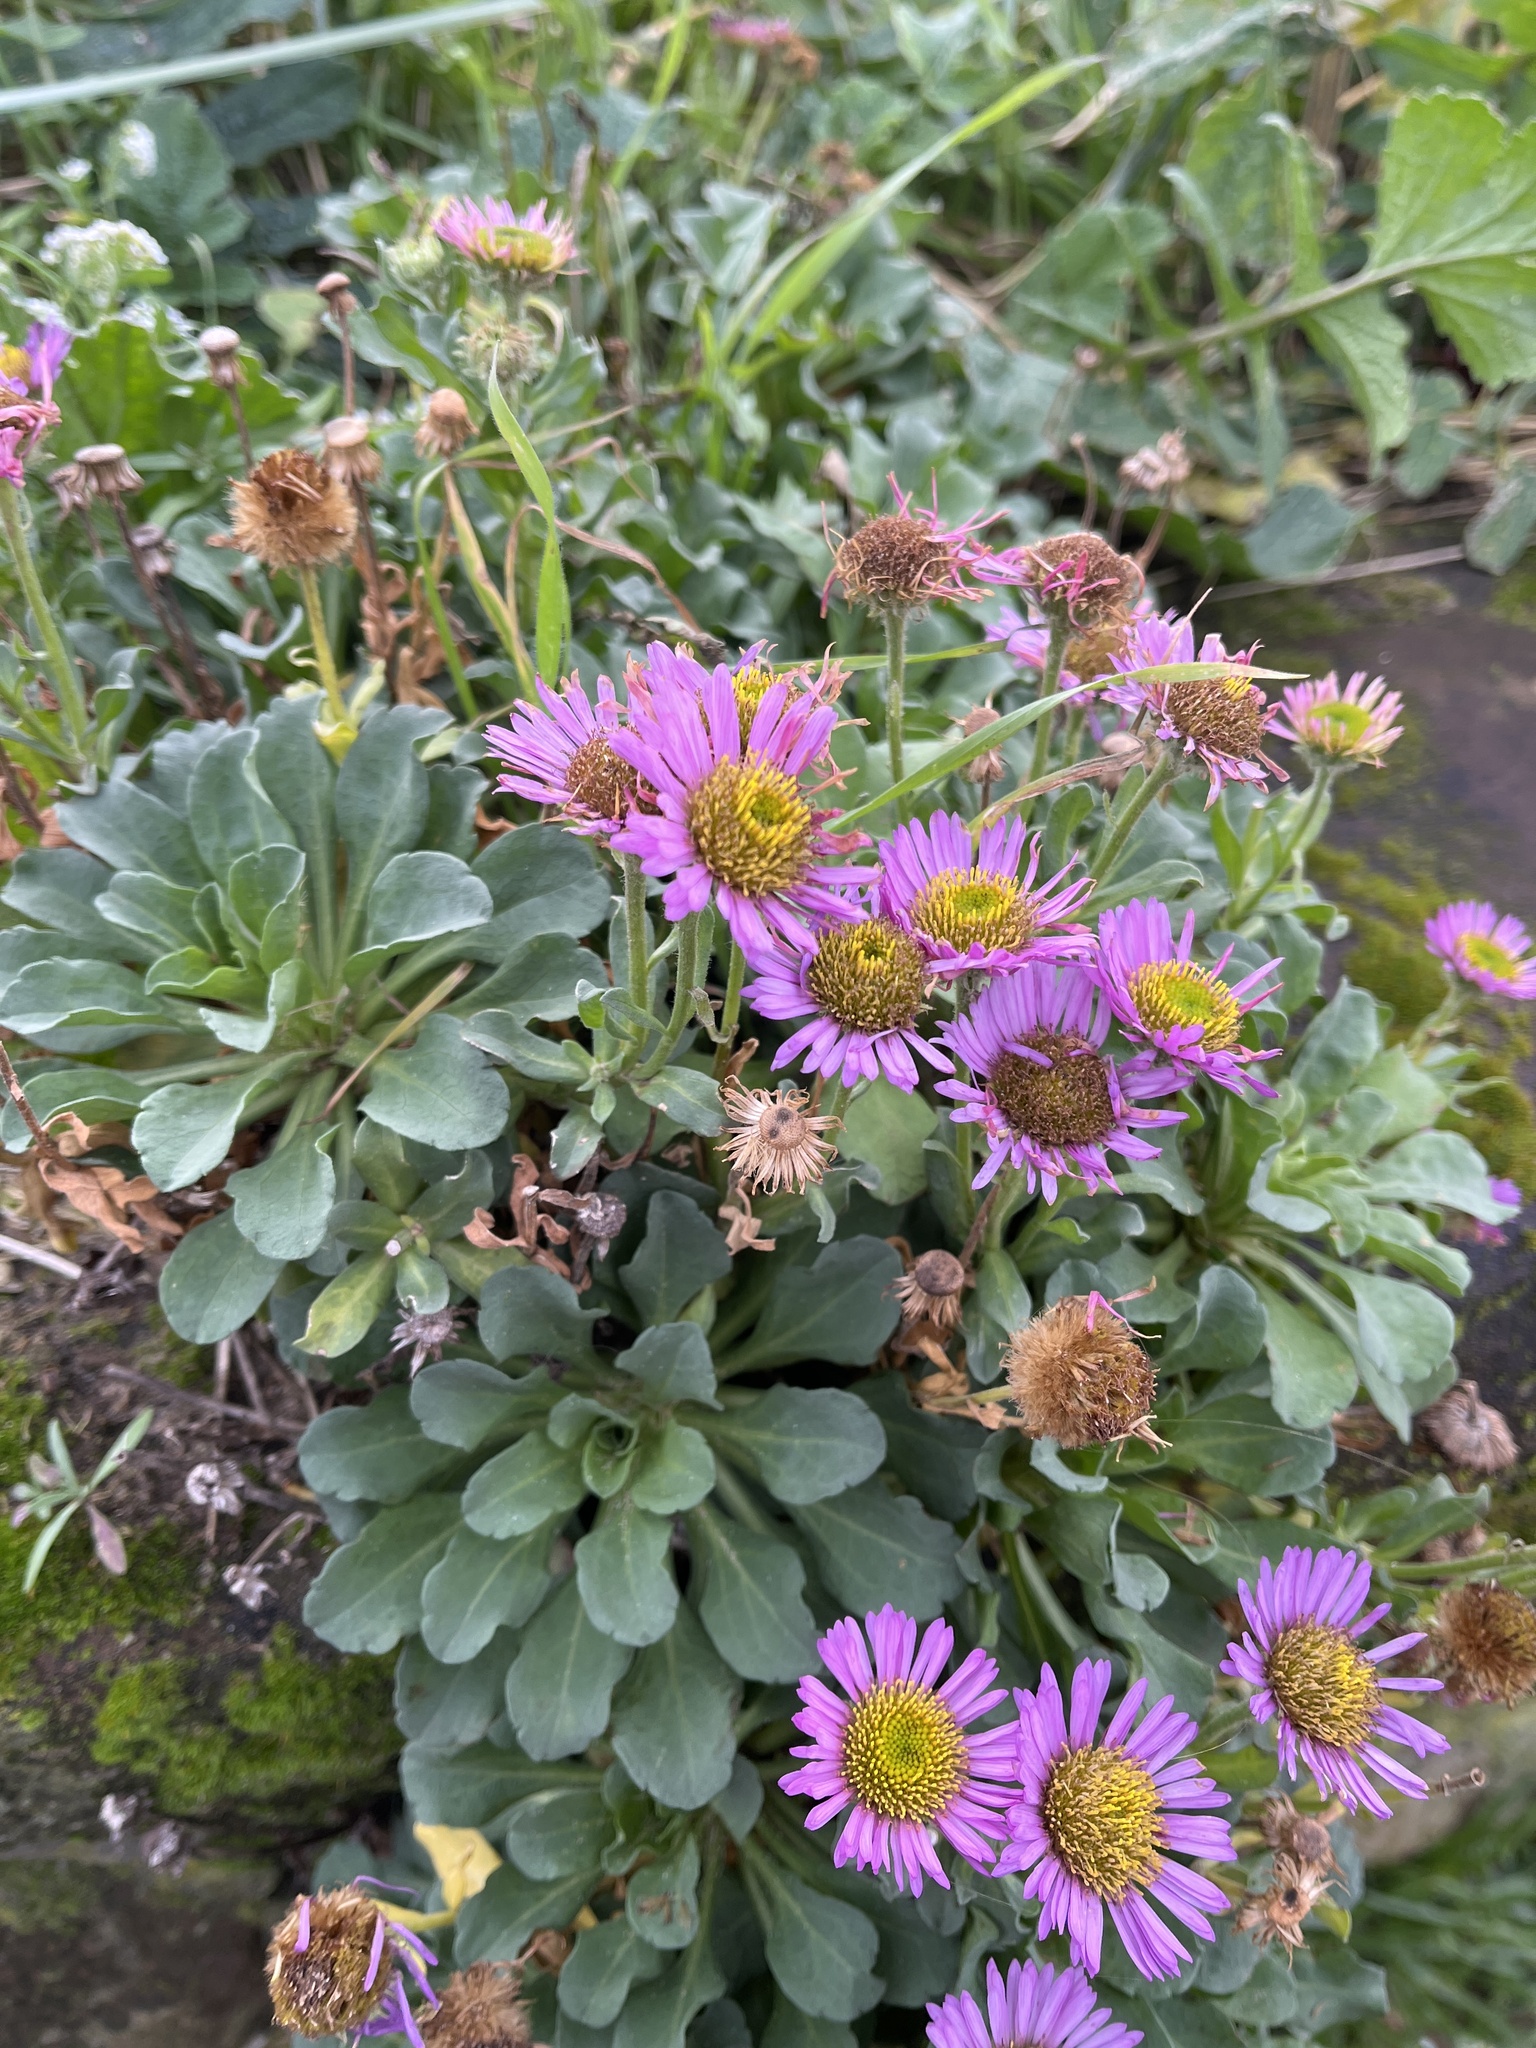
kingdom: Plantae
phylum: Tracheophyta
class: Magnoliopsida
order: Asterales
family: Asteraceae
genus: Erigeron
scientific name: Erigeron glaucus
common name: Seaside daisy
